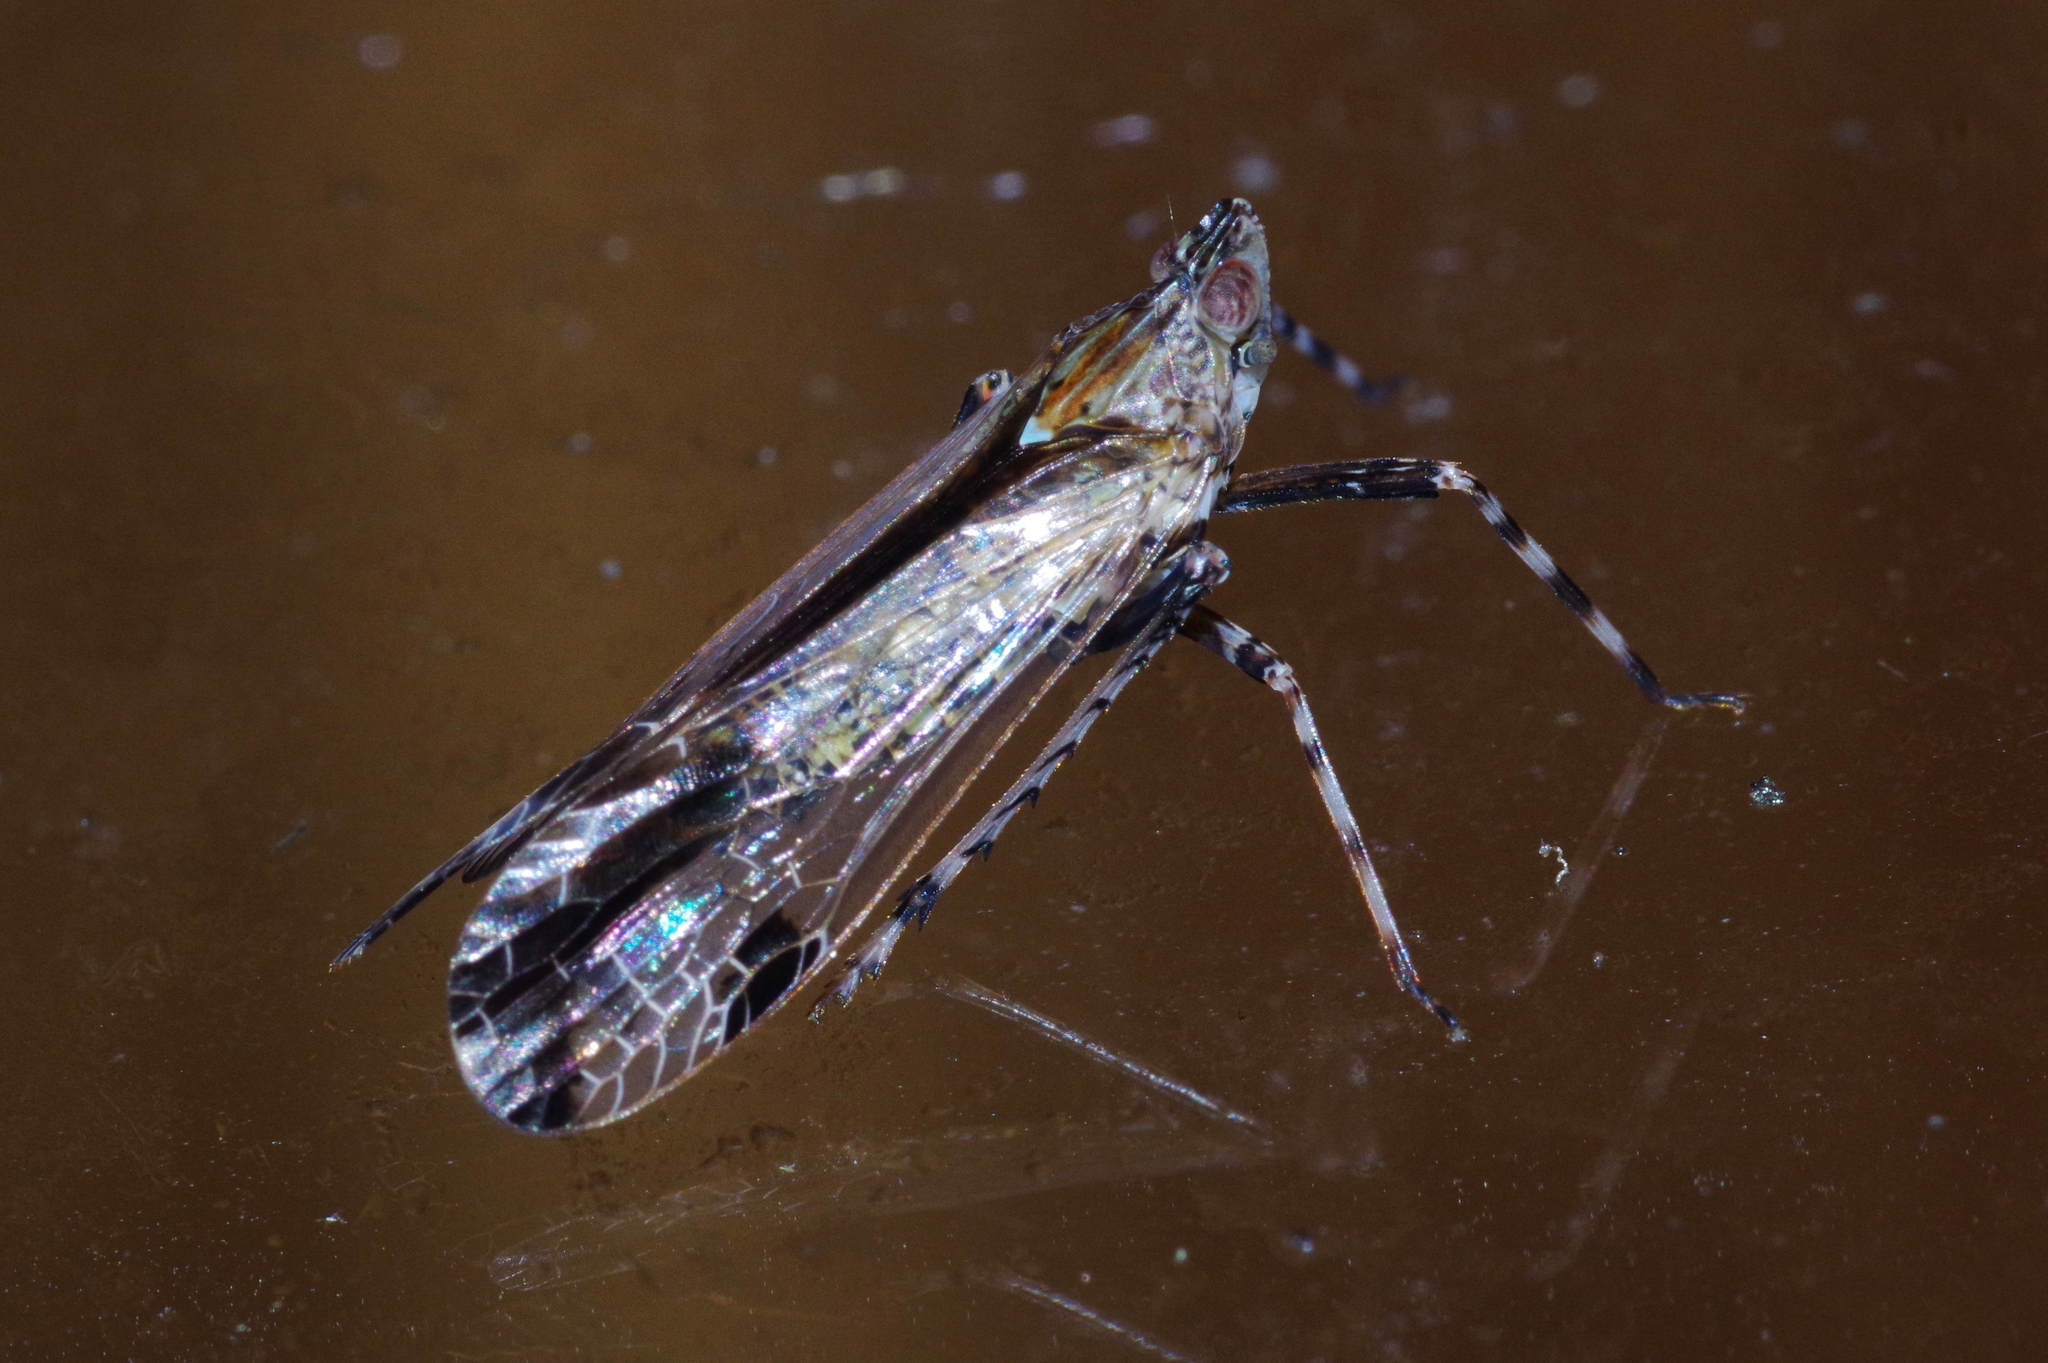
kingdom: Animalia
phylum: Arthropoda
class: Insecta
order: Hemiptera
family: Dictyopharidae
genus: Orthopagus
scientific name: Orthopagus lunulifer
